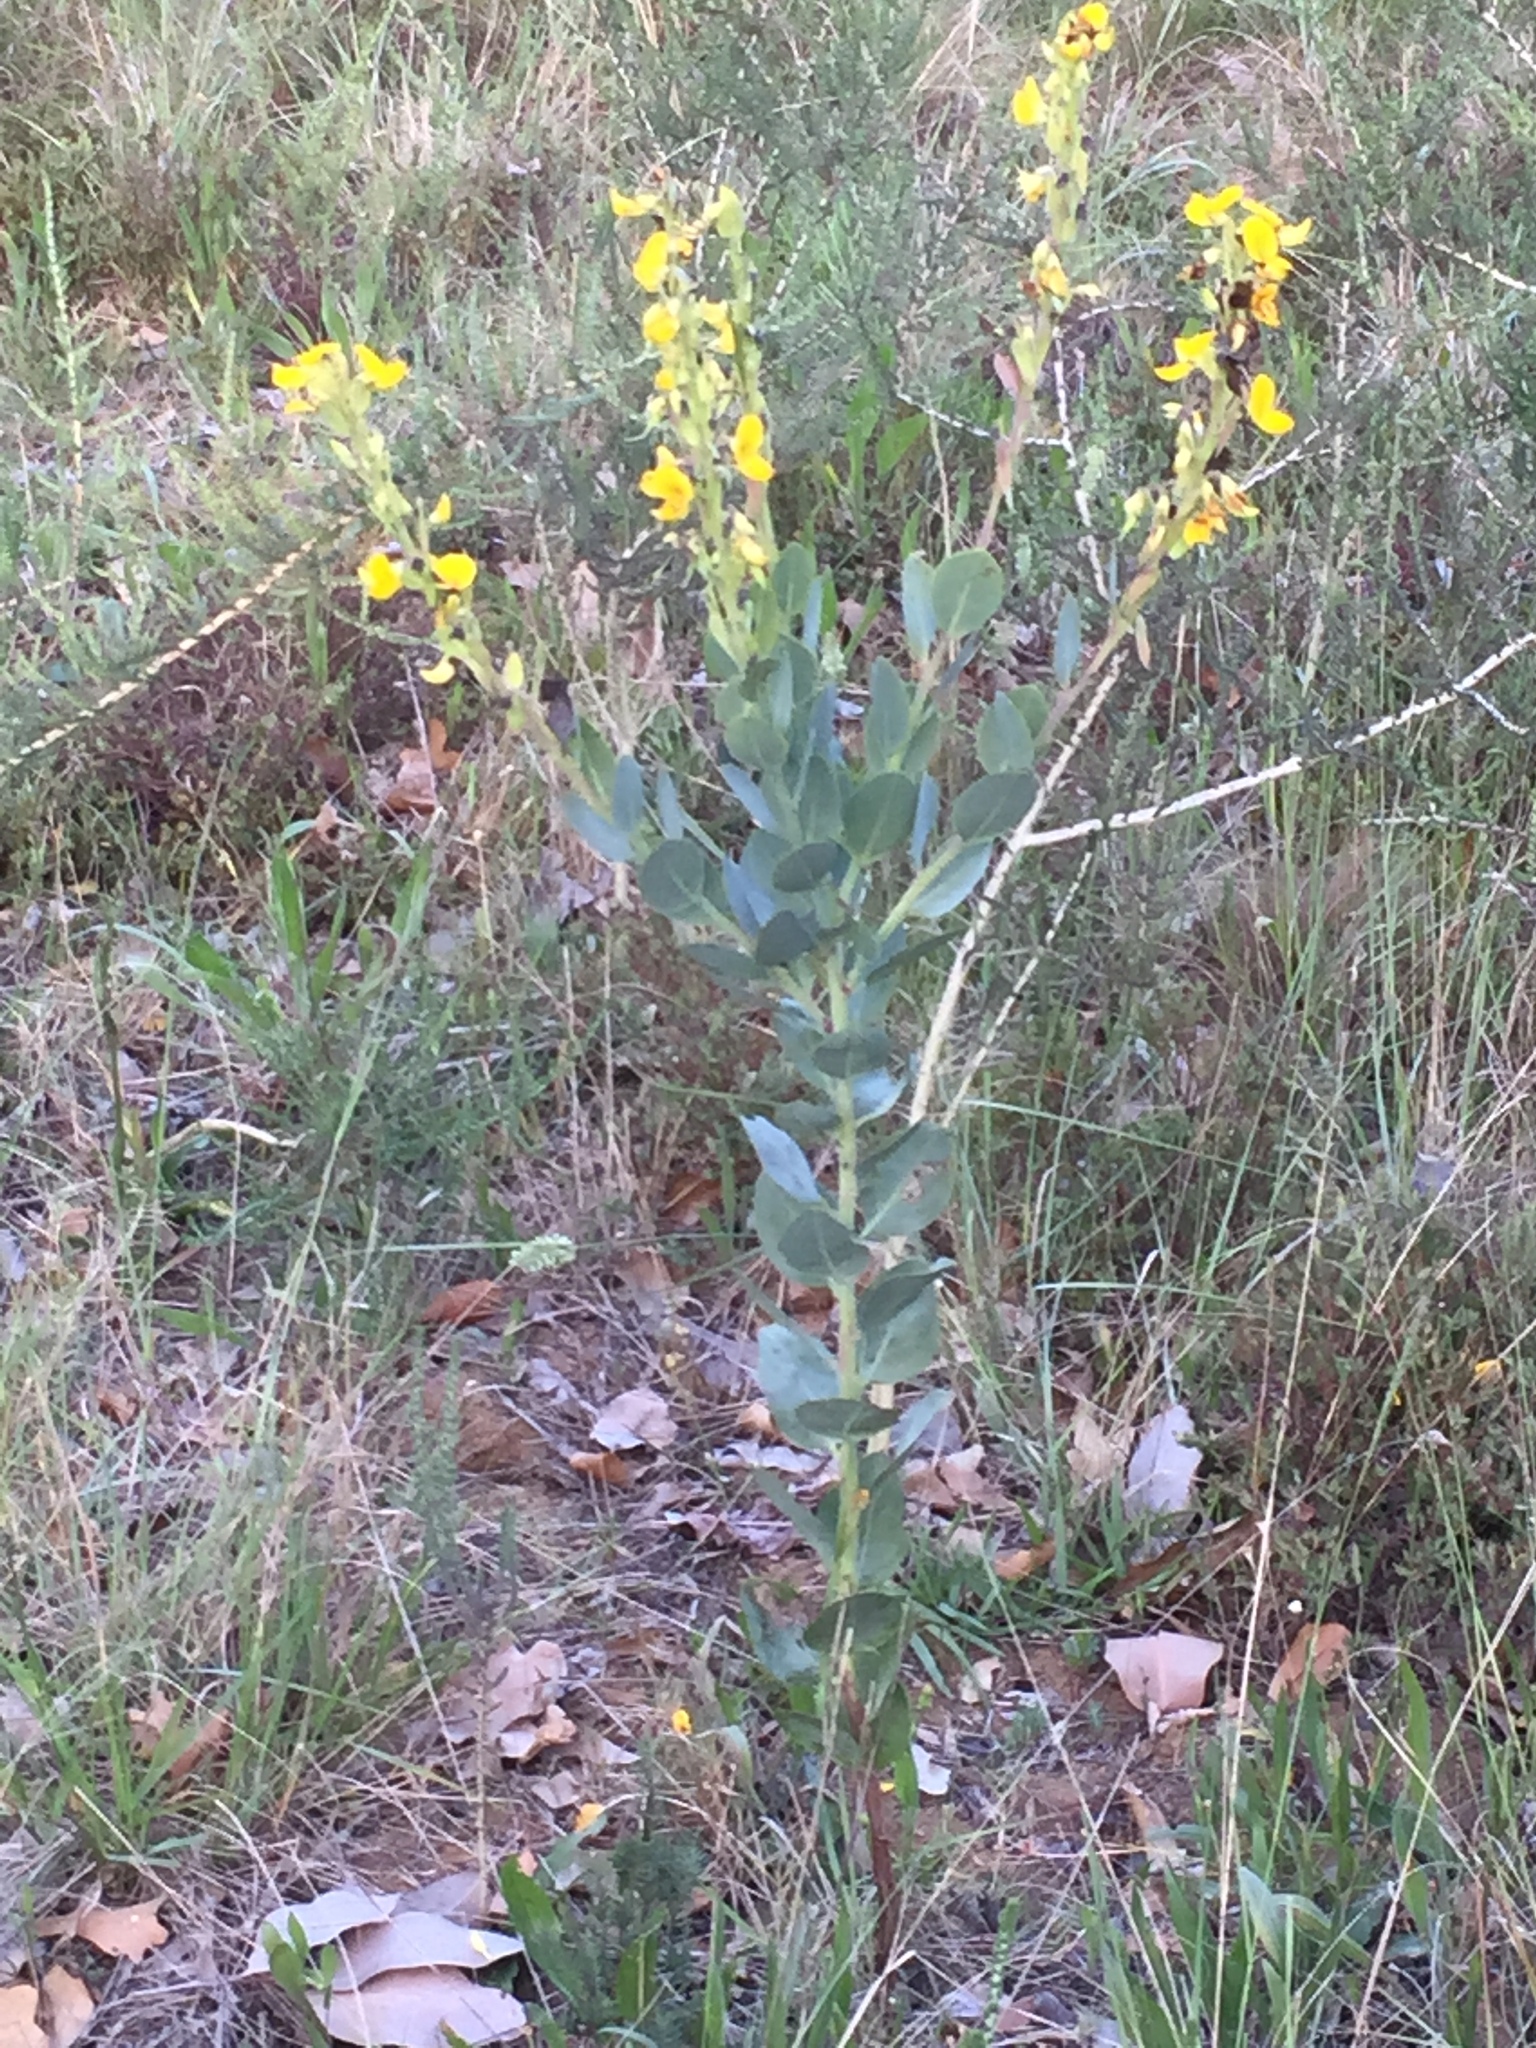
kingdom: Plantae
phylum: Tracheophyta
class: Magnoliopsida
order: Fabales
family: Fabaceae
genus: Rafnia
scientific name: Rafnia triflora
